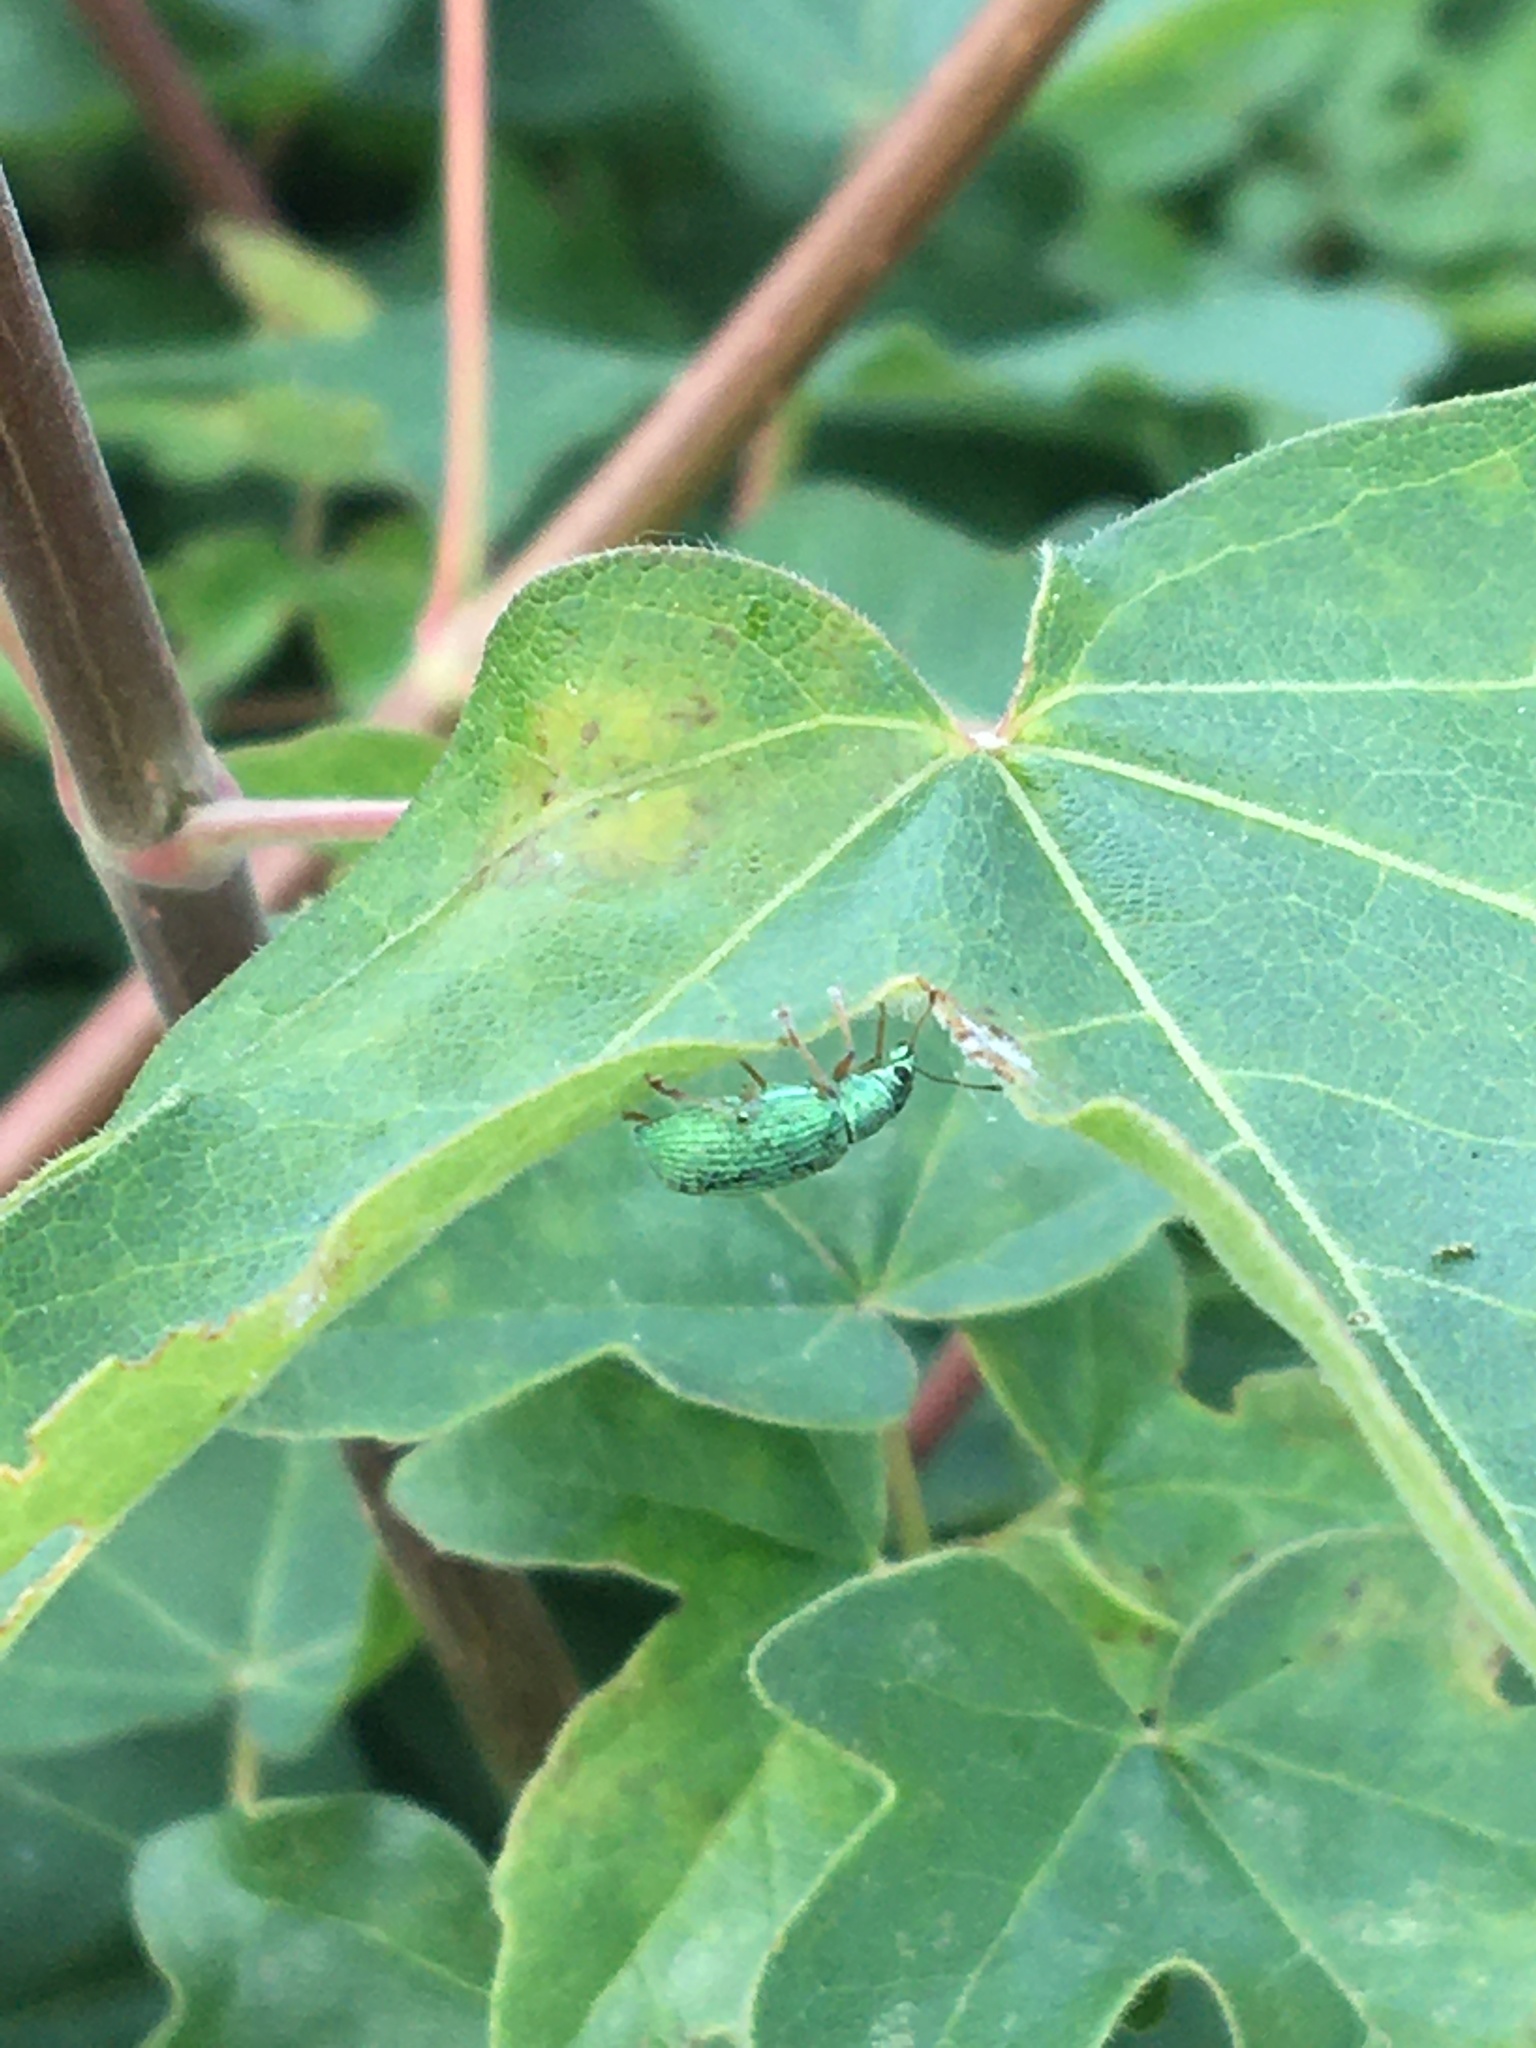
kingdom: Animalia
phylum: Arthropoda
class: Insecta
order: Coleoptera
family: Curculionidae
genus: Polydrusus
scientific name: Polydrusus formosus
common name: Weevil
